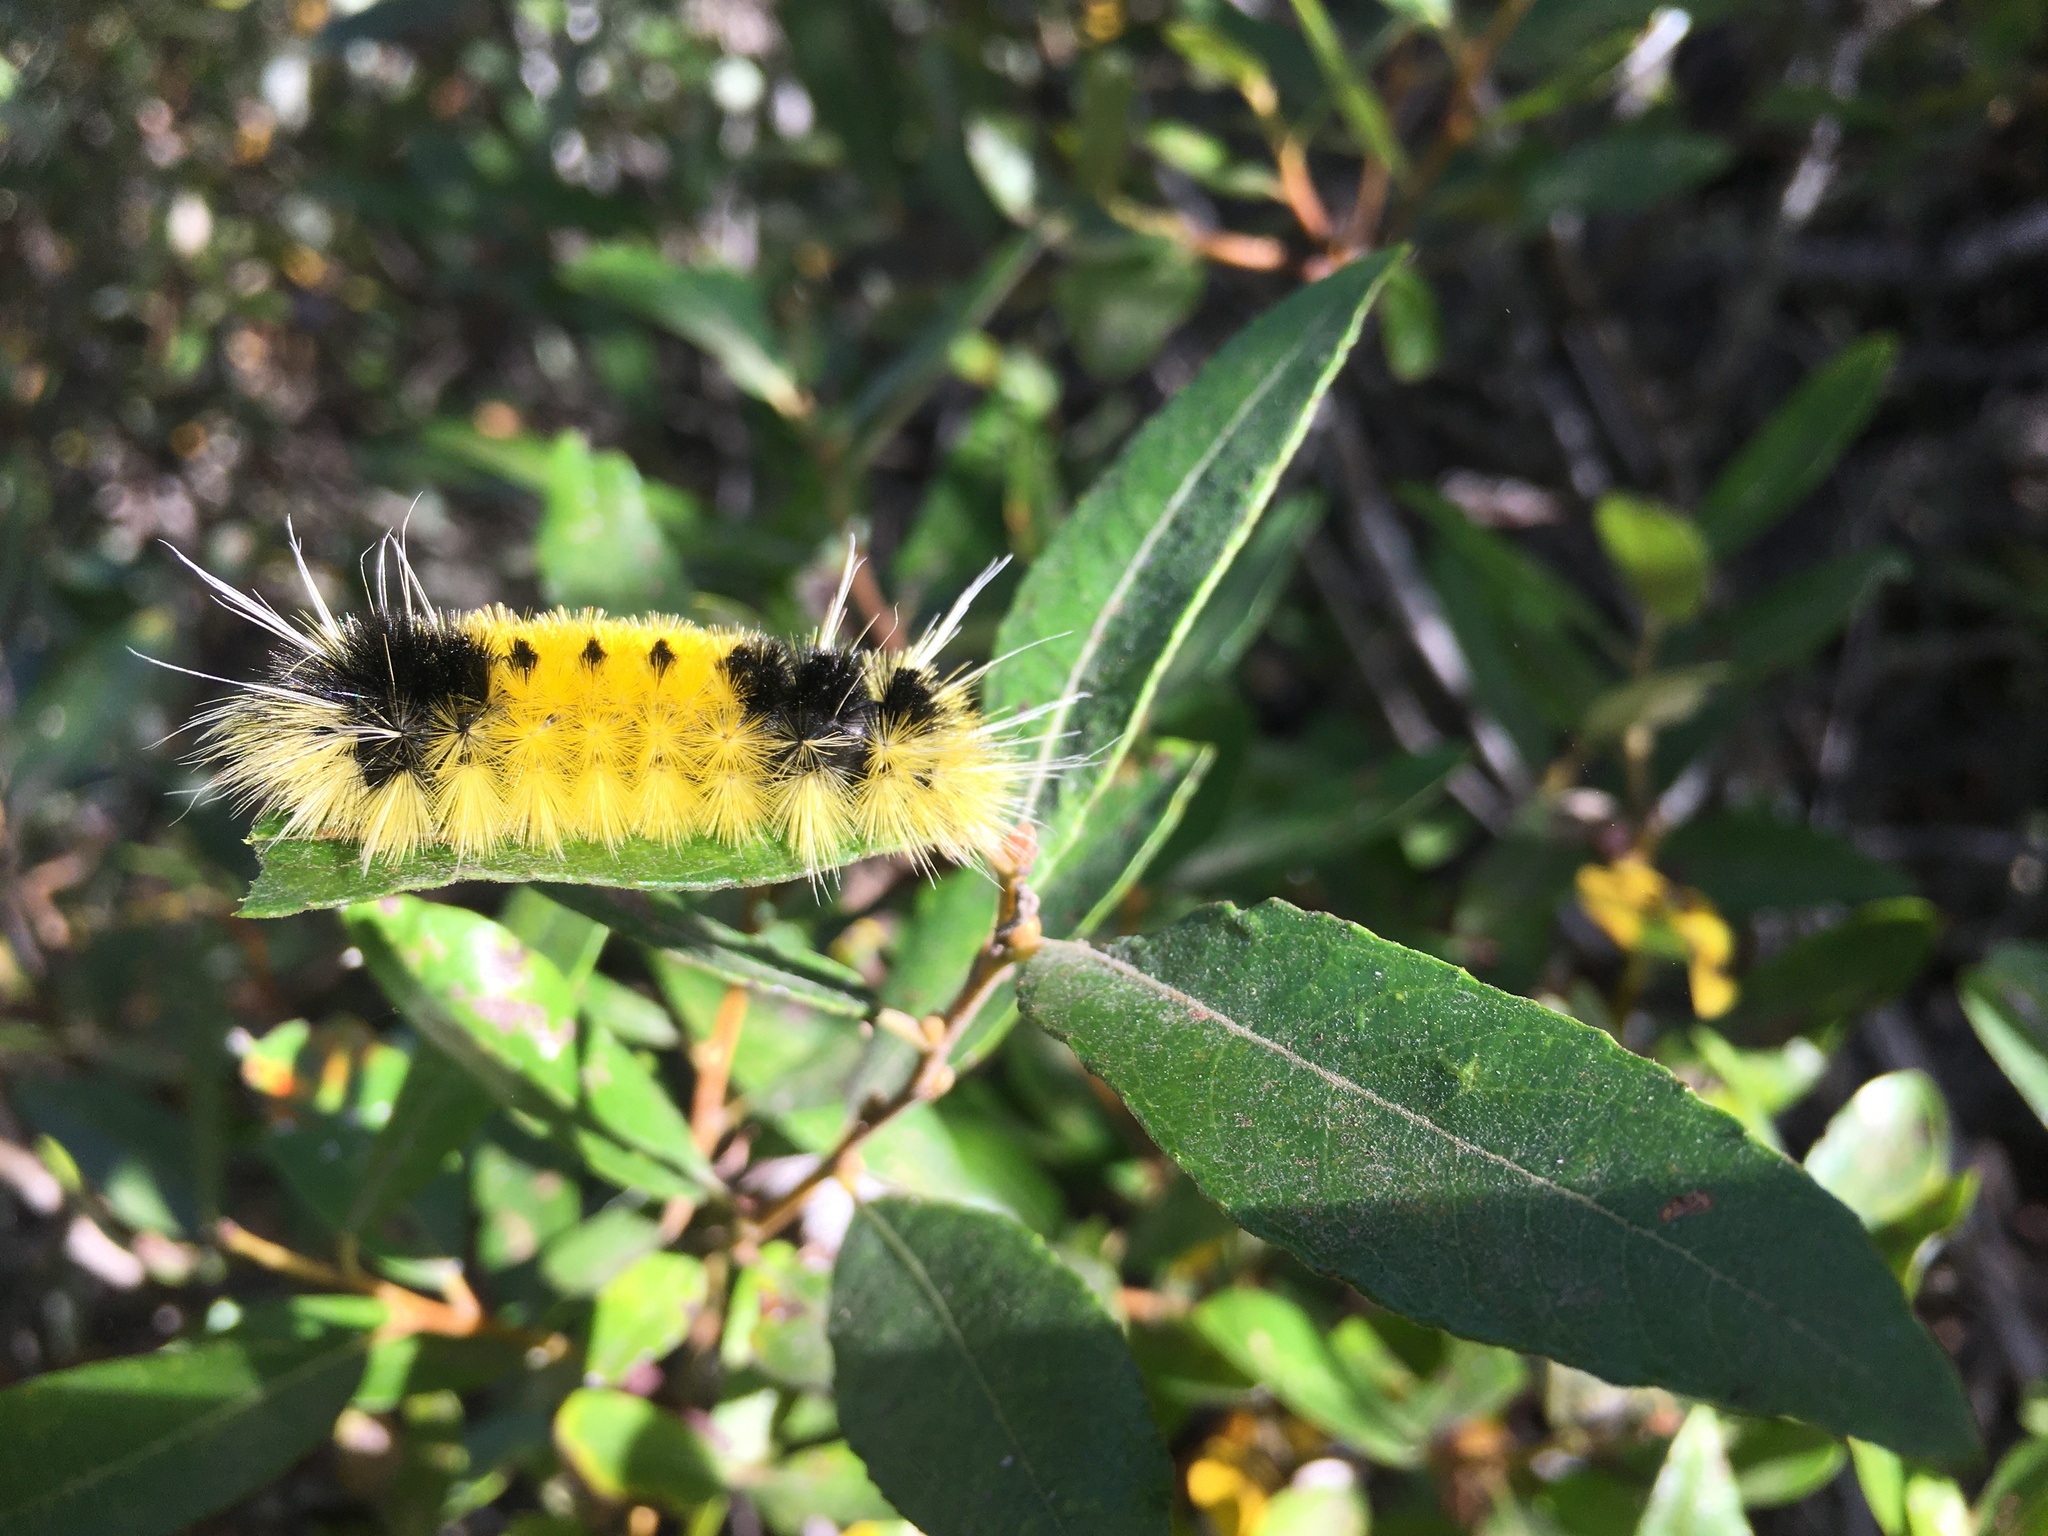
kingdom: Animalia
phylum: Arthropoda
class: Insecta
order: Lepidoptera
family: Erebidae
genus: Lophocampa
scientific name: Lophocampa maculata
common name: Spotted tussock moth
